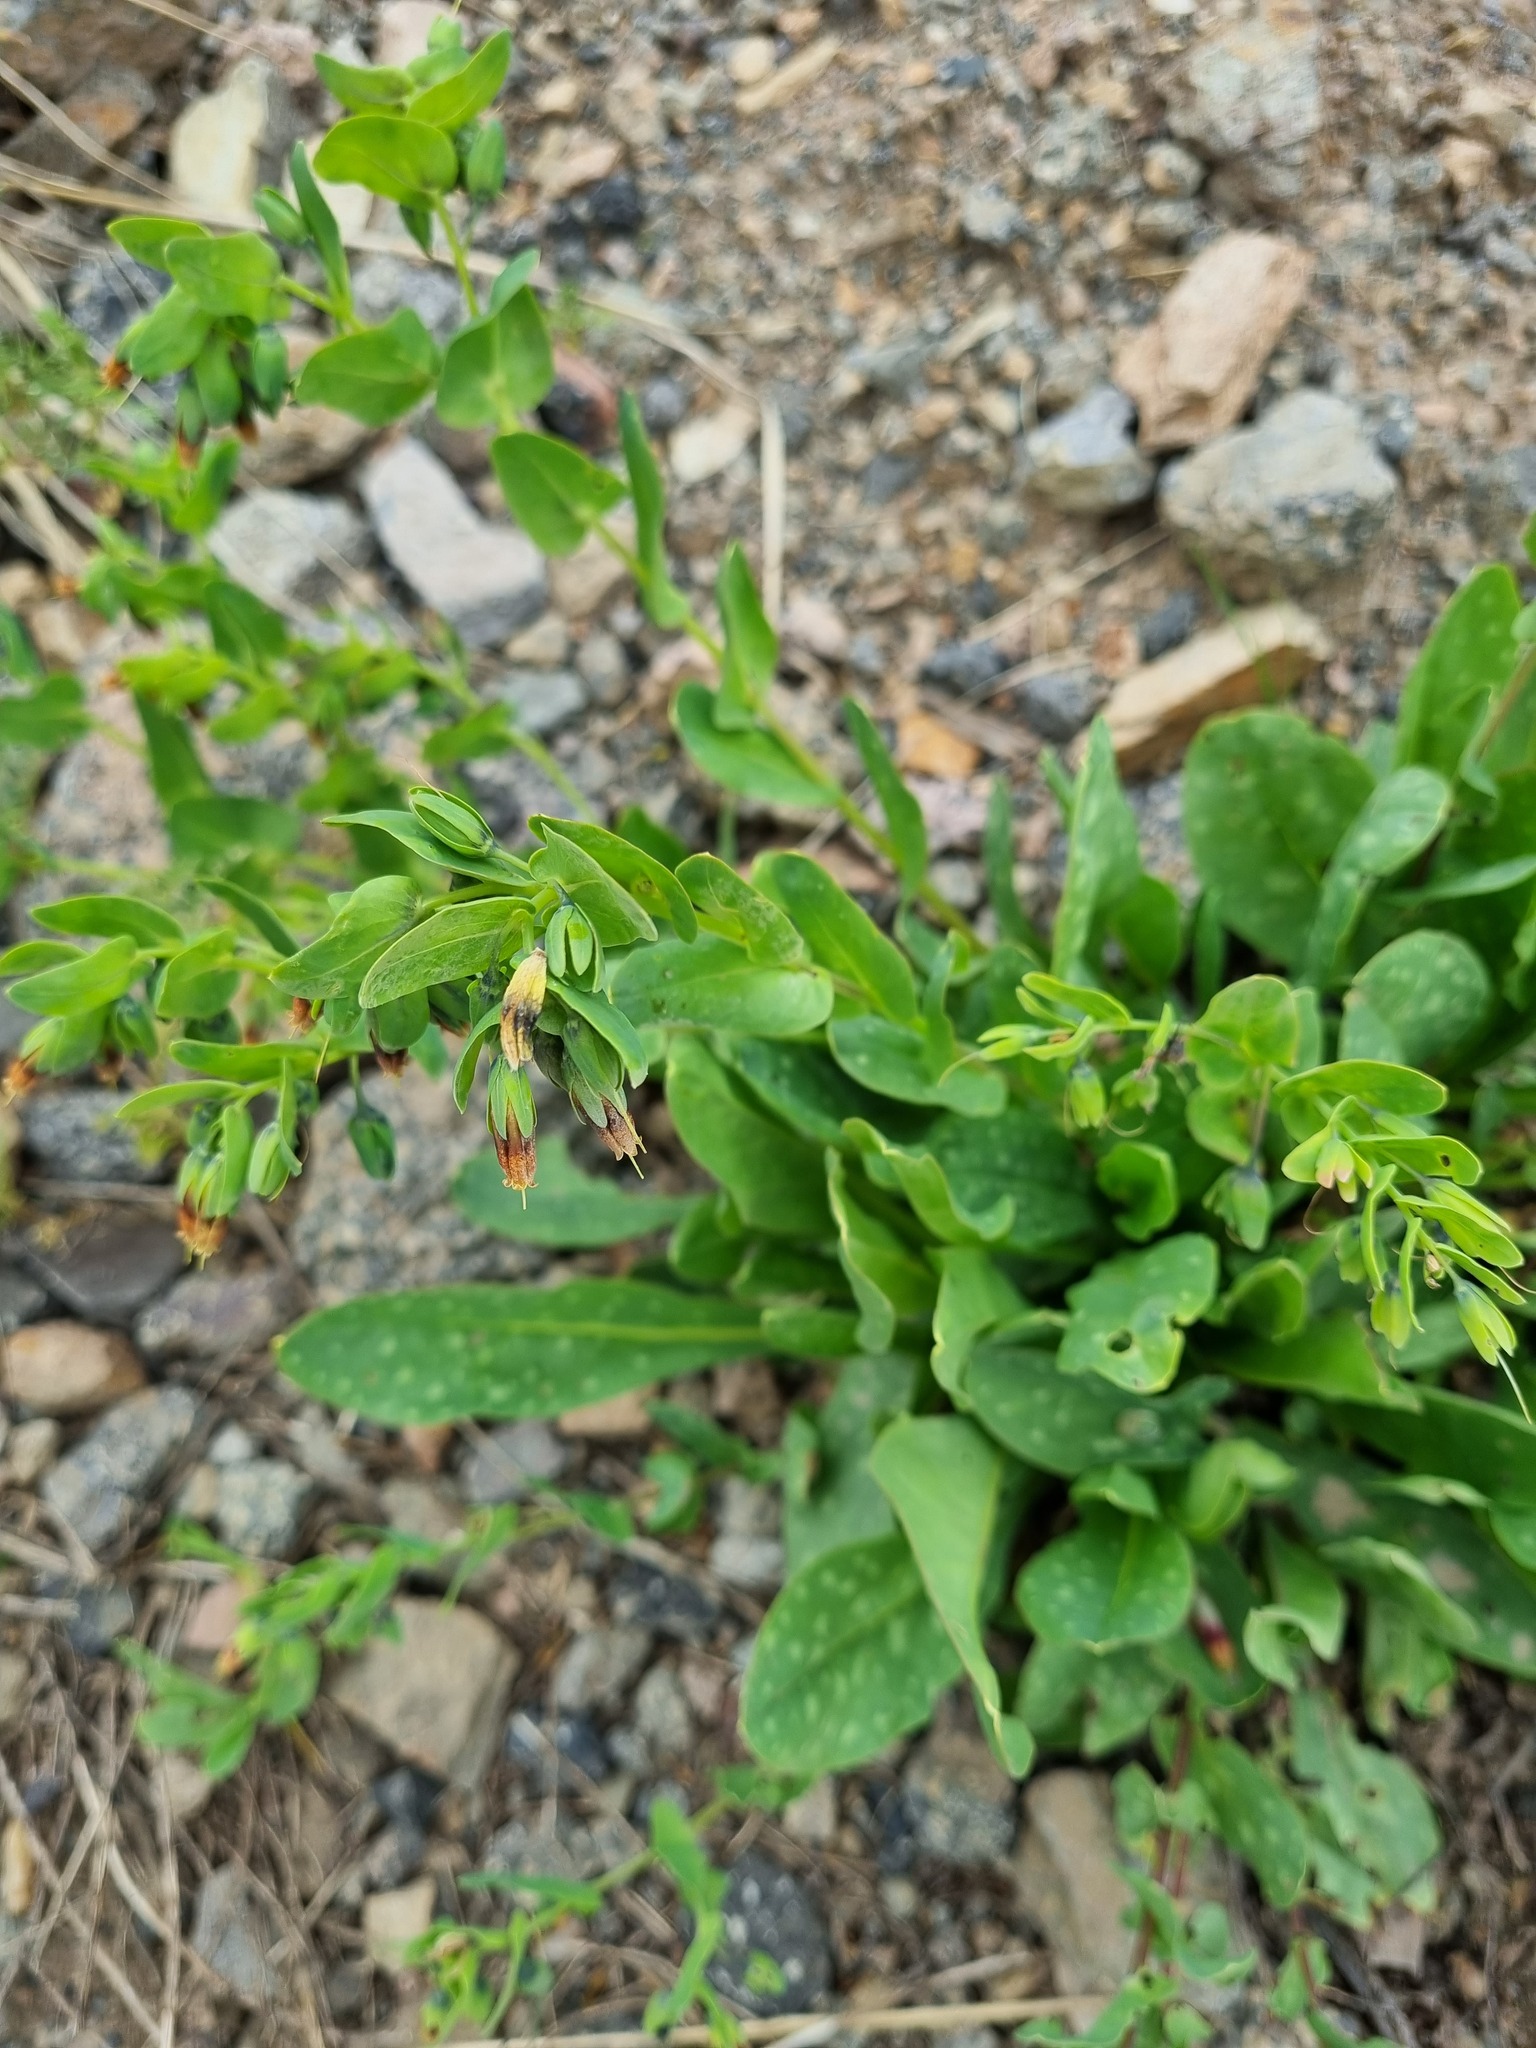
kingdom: Plantae
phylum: Tracheophyta
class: Magnoliopsida
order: Boraginales
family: Boraginaceae
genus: Cerinthe
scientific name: Cerinthe glabra
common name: Smooth honeywort
